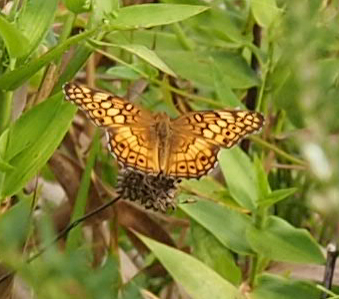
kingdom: Animalia
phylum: Arthropoda
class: Insecta
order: Lepidoptera
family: Nymphalidae
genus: Euptoieta
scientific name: Euptoieta claudia
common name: Variegated fritillary
